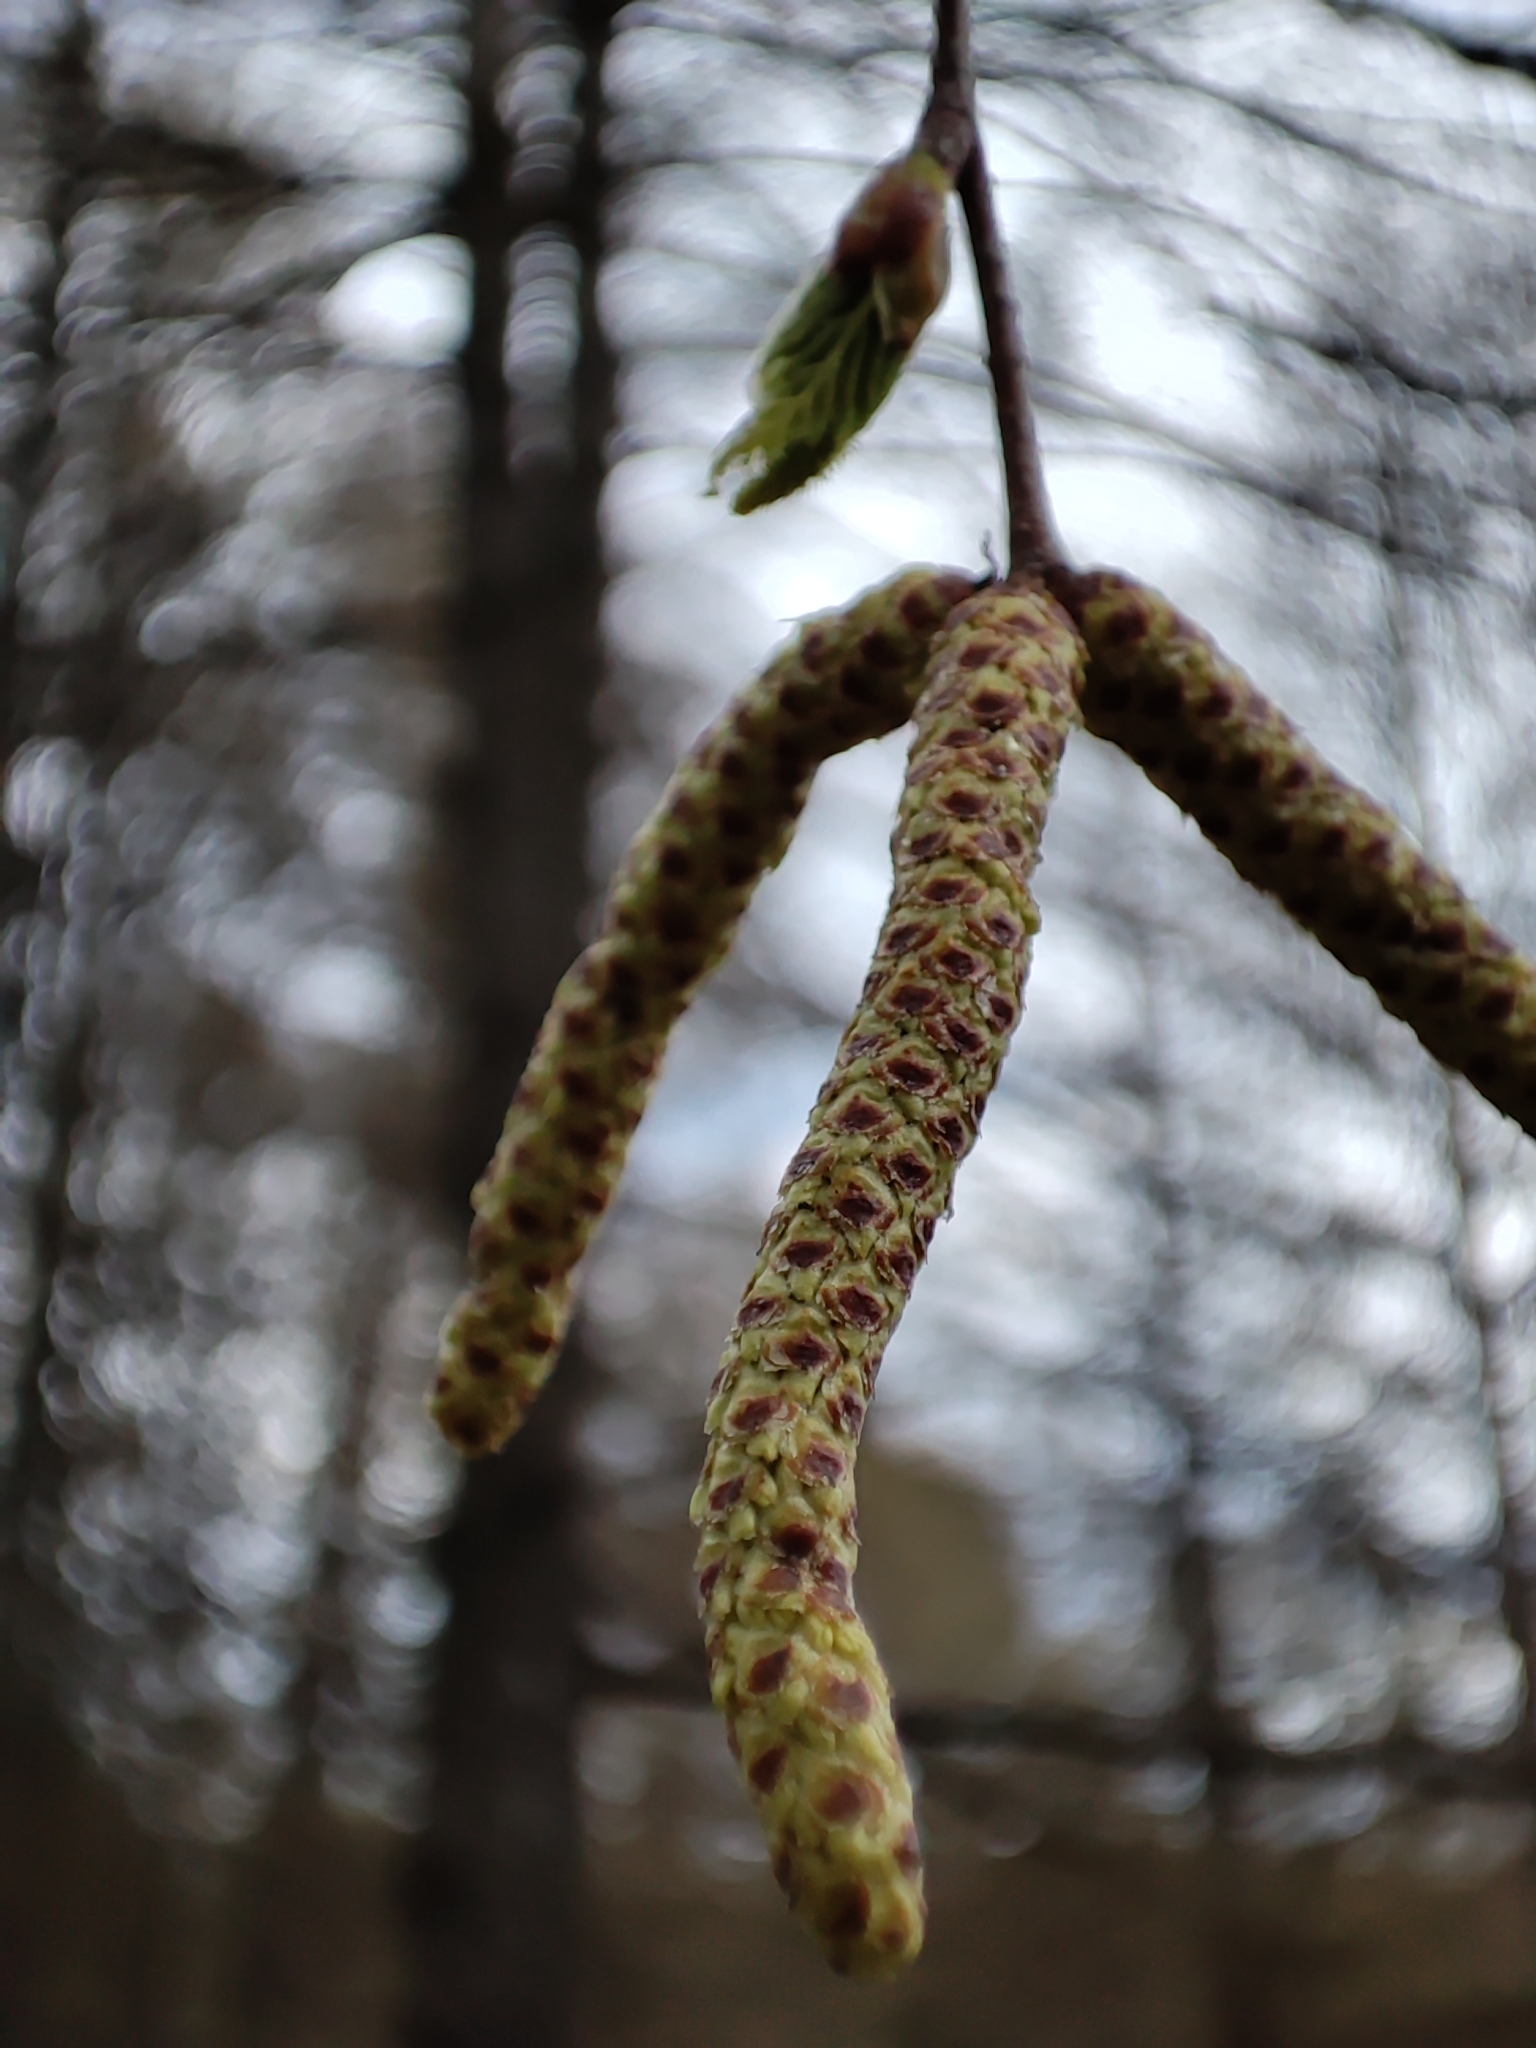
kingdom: Plantae
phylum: Tracheophyta
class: Magnoliopsida
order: Fagales
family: Betulaceae
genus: Betula
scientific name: Betula pendula
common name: Silver birch
